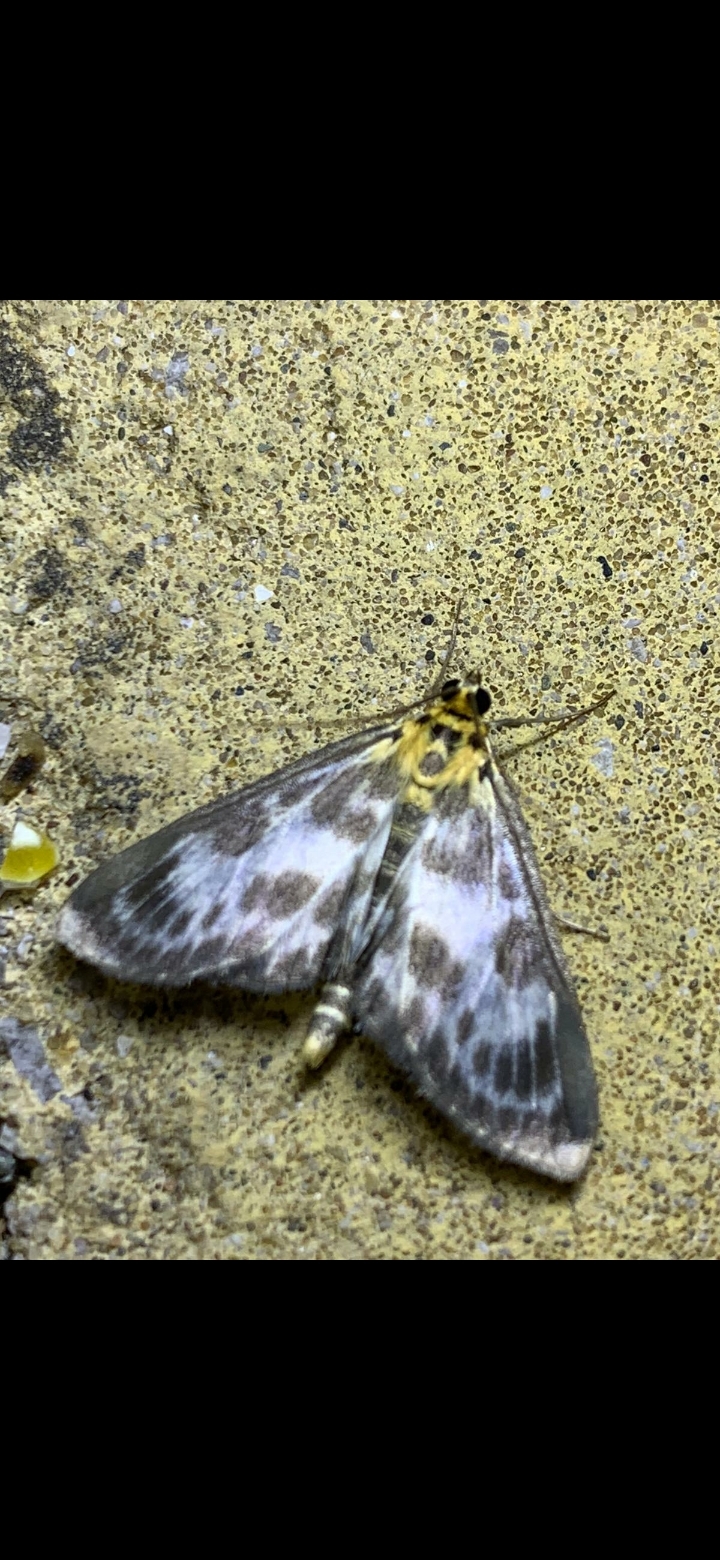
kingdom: Animalia
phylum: Arthropoda
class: Insecta
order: Lepidoptera
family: Crambidae
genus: Anania
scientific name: Anania hortulata
